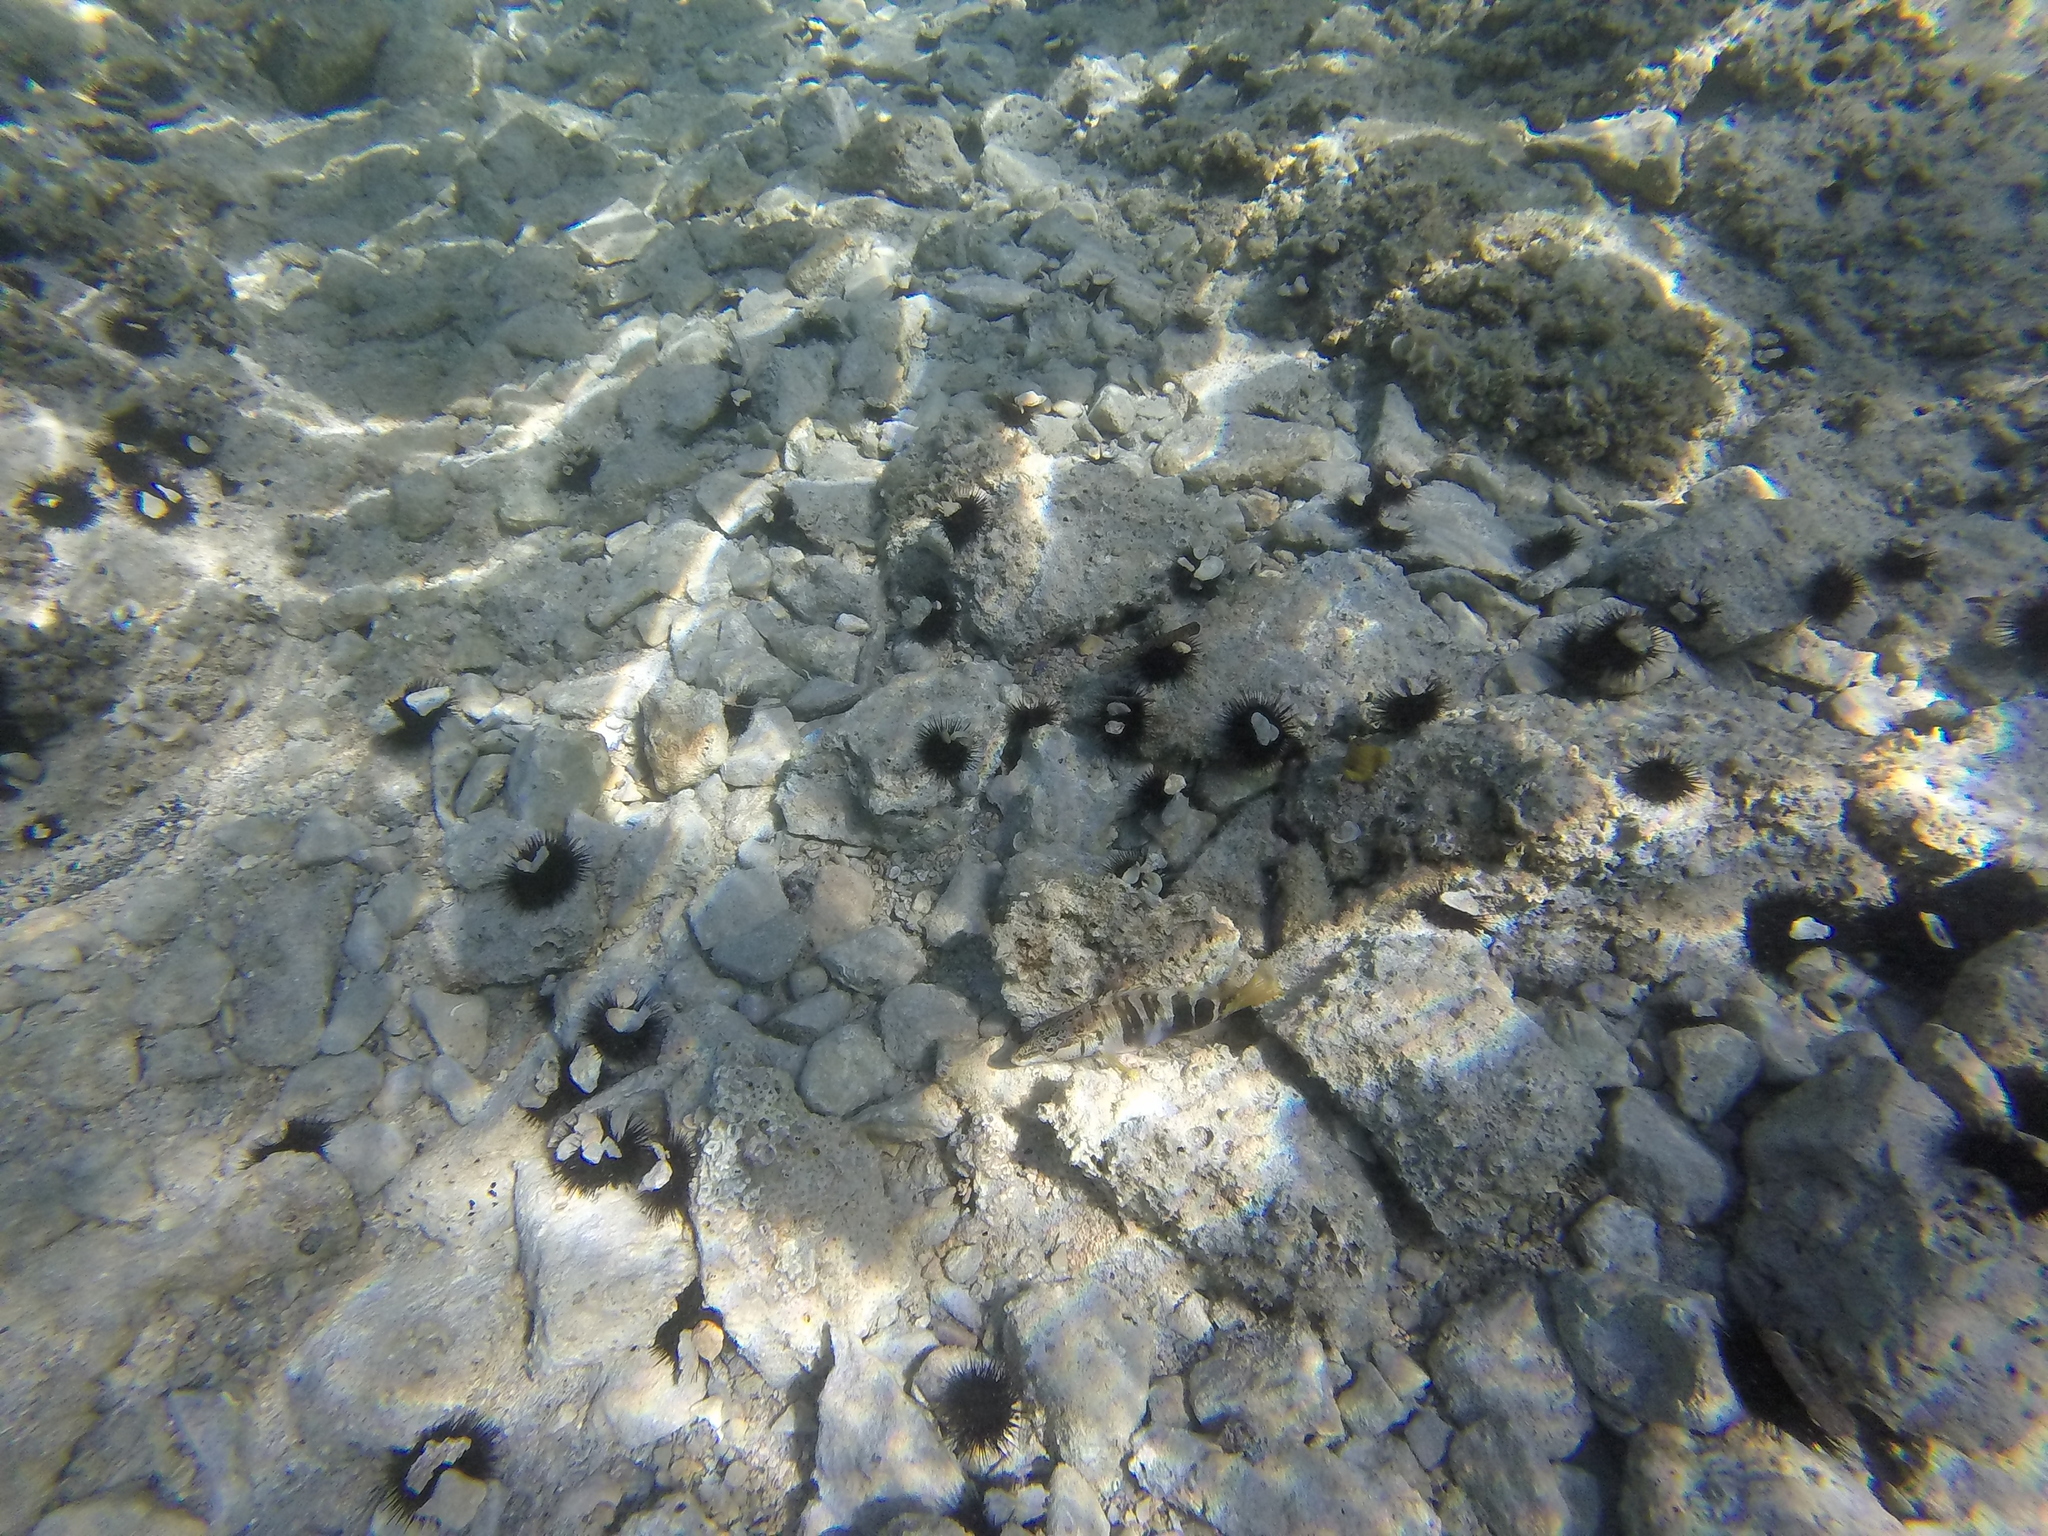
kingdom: Animalia
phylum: Chordata
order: Perciformes
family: Serranidae
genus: Serranus
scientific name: Serranus scriba
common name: Painted comber
